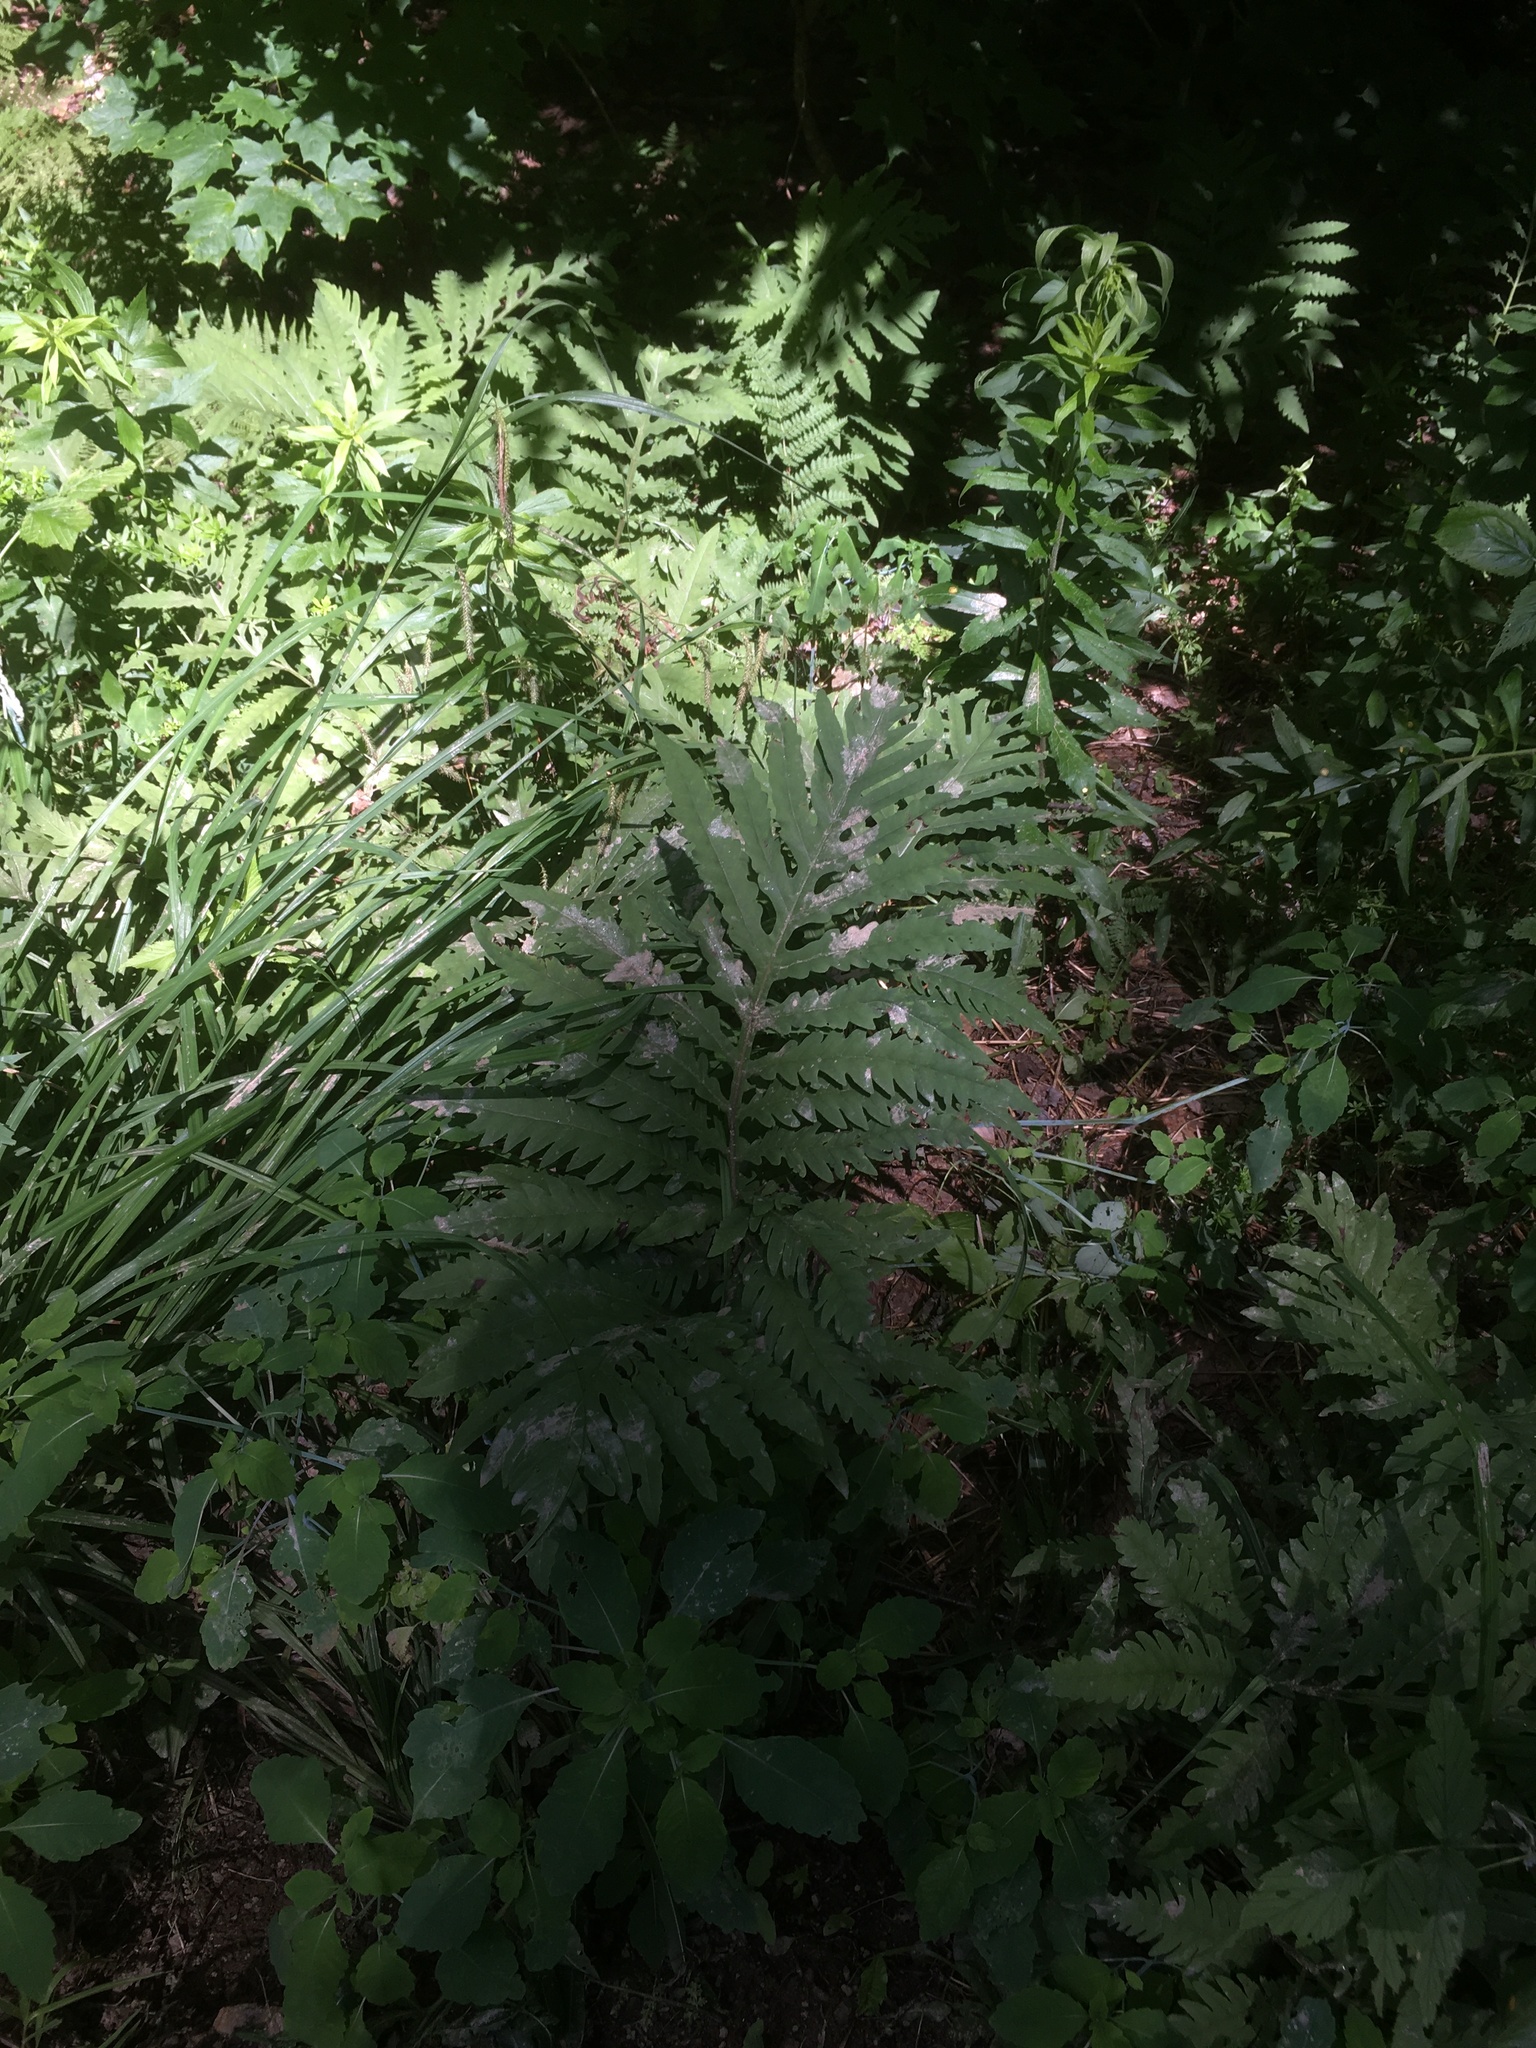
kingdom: Plantae
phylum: Tracheophyta
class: Polypodiopsida
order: Polypodiales
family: Onocleaceae
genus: Onoclea
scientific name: Onoclea sensibilis
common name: Sensitive fern
